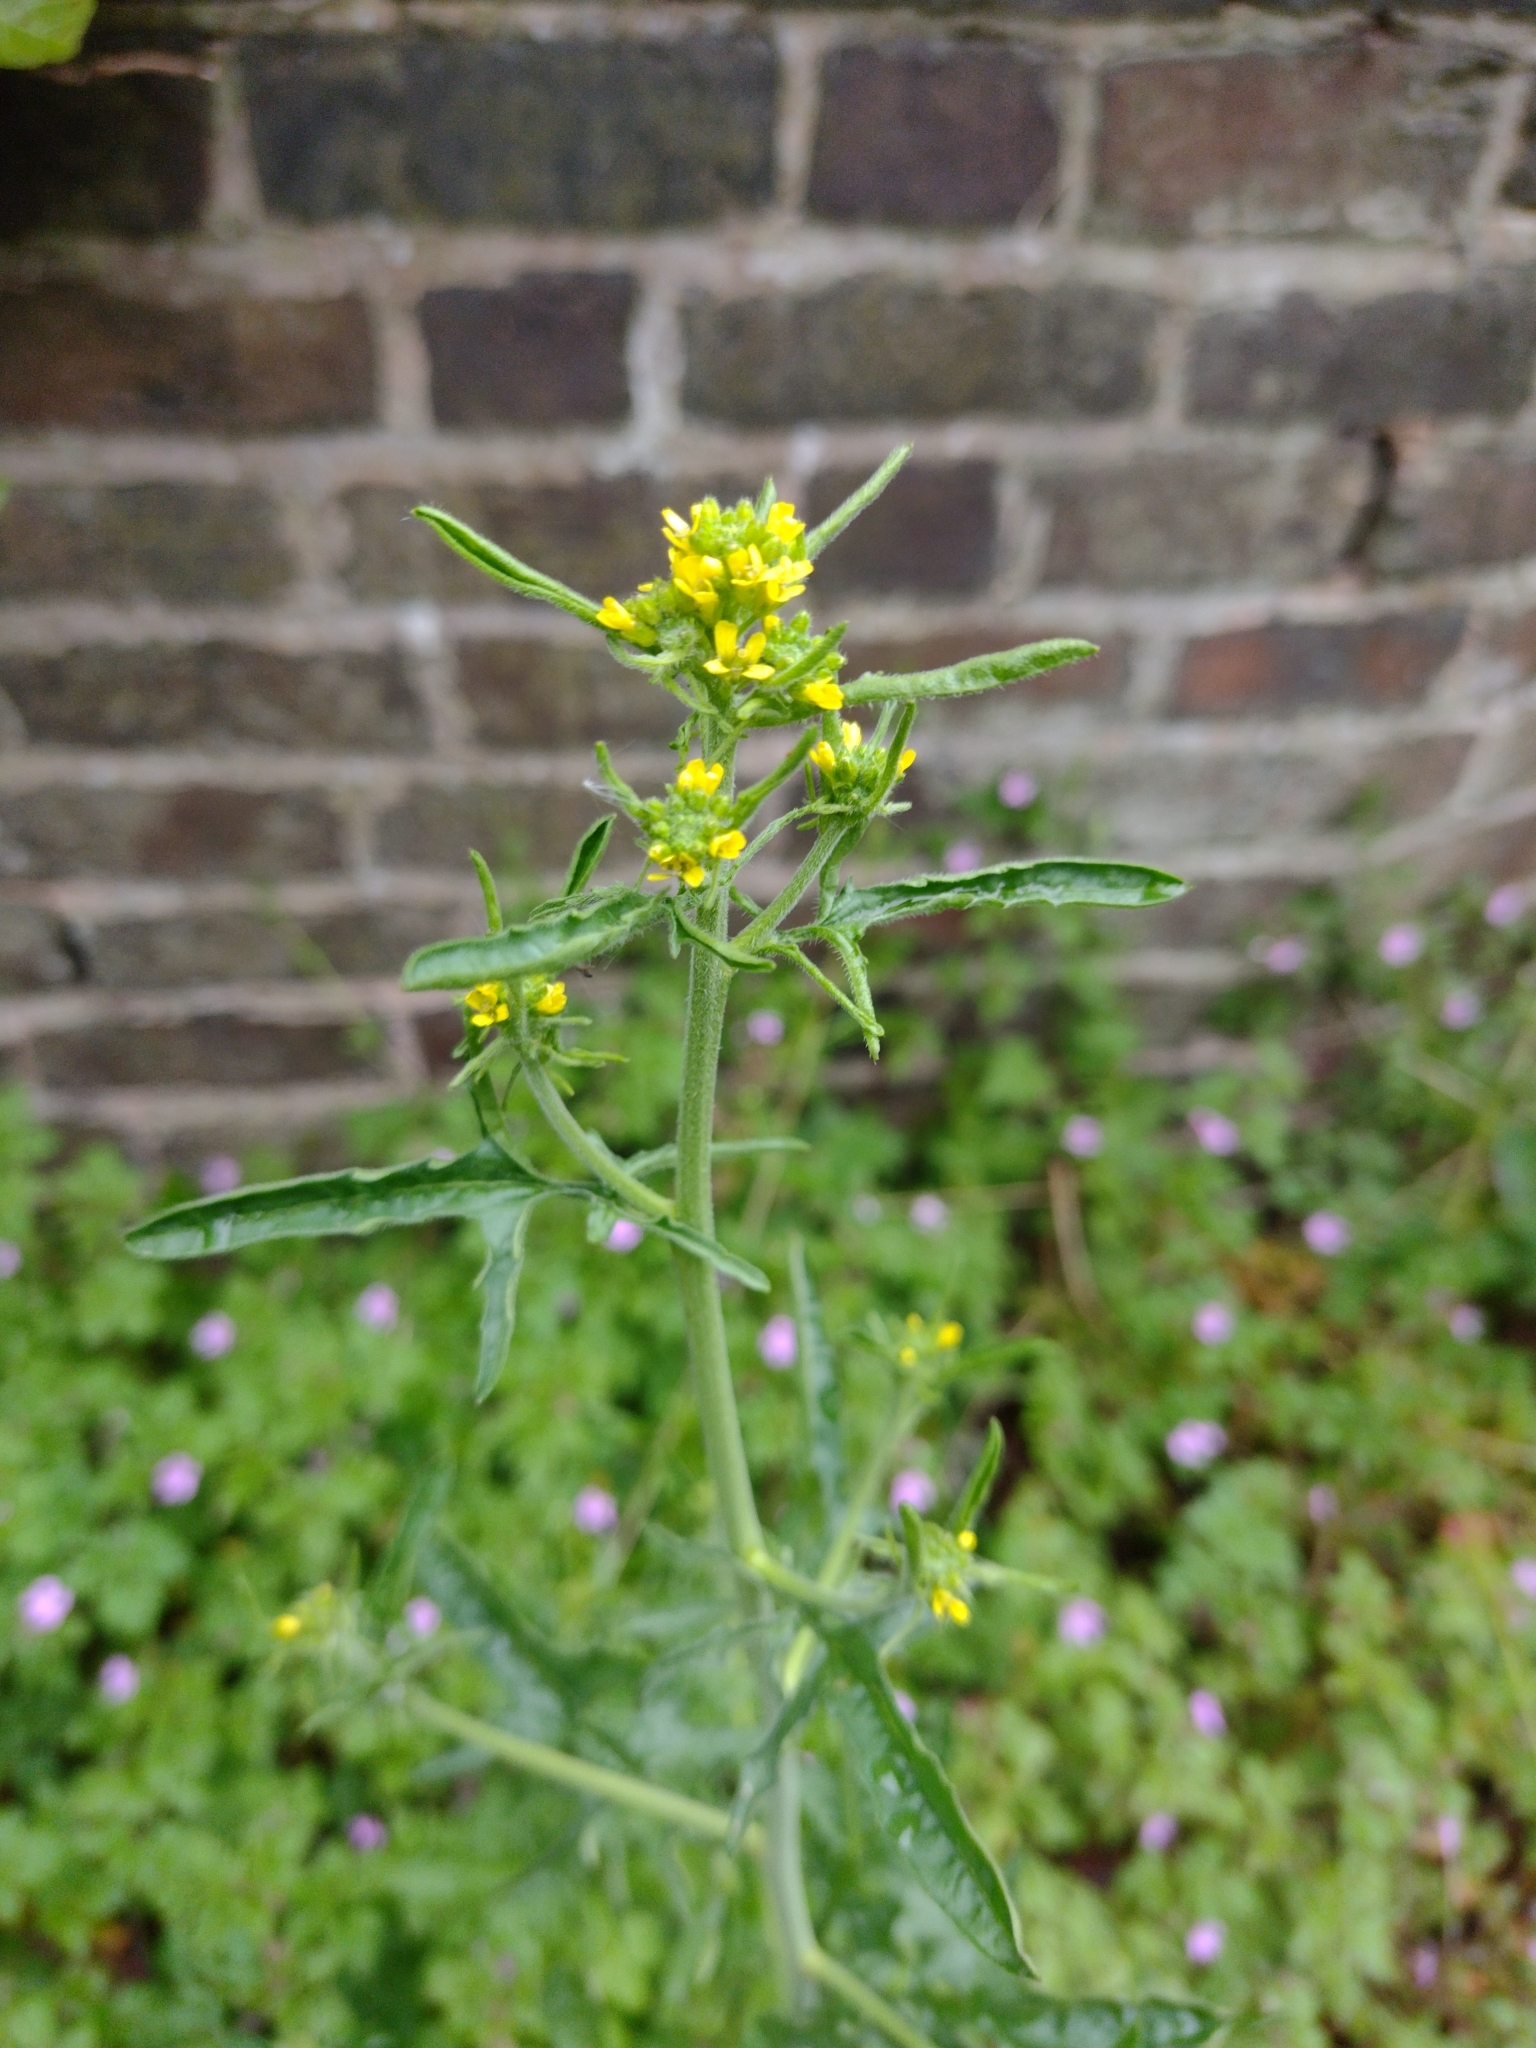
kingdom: Plantae
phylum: Tracheophyta
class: Magnoliopsida
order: Brassicales
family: Brassicaceae
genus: Sisymbrium
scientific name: Sisymbrium officinale
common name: Hedge mustard
